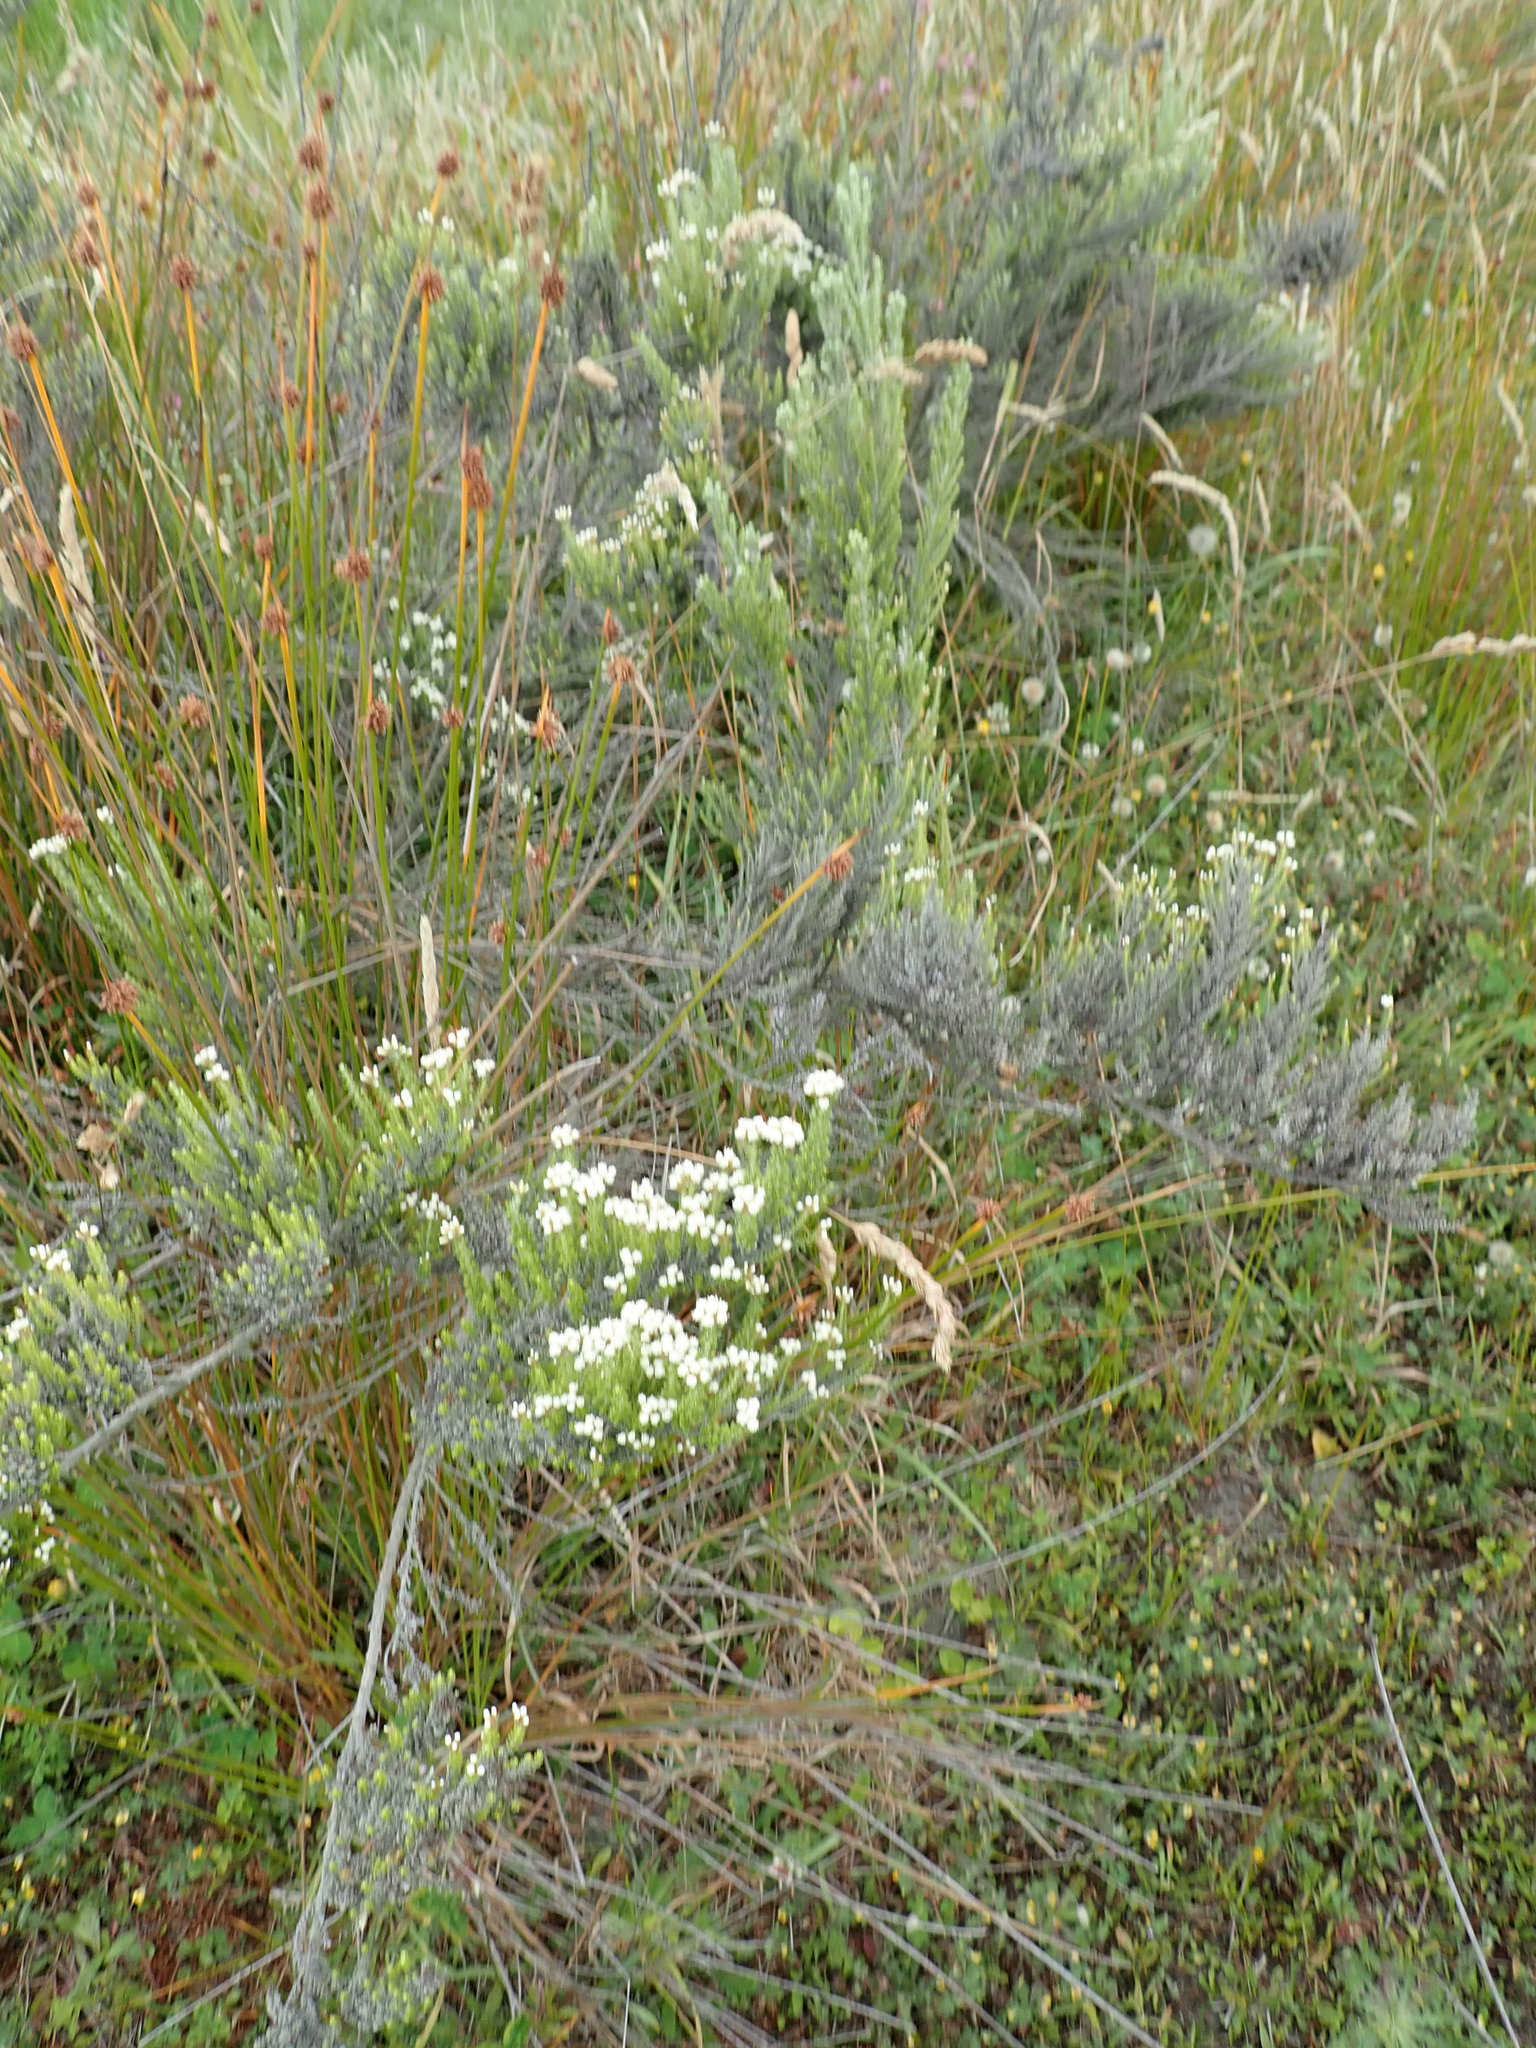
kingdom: Plantae
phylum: Tracheophyta
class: Magnoliopsida
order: Asterales
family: Asteraceae
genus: Ozothamnus
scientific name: Ozothamnus leptophyllus
